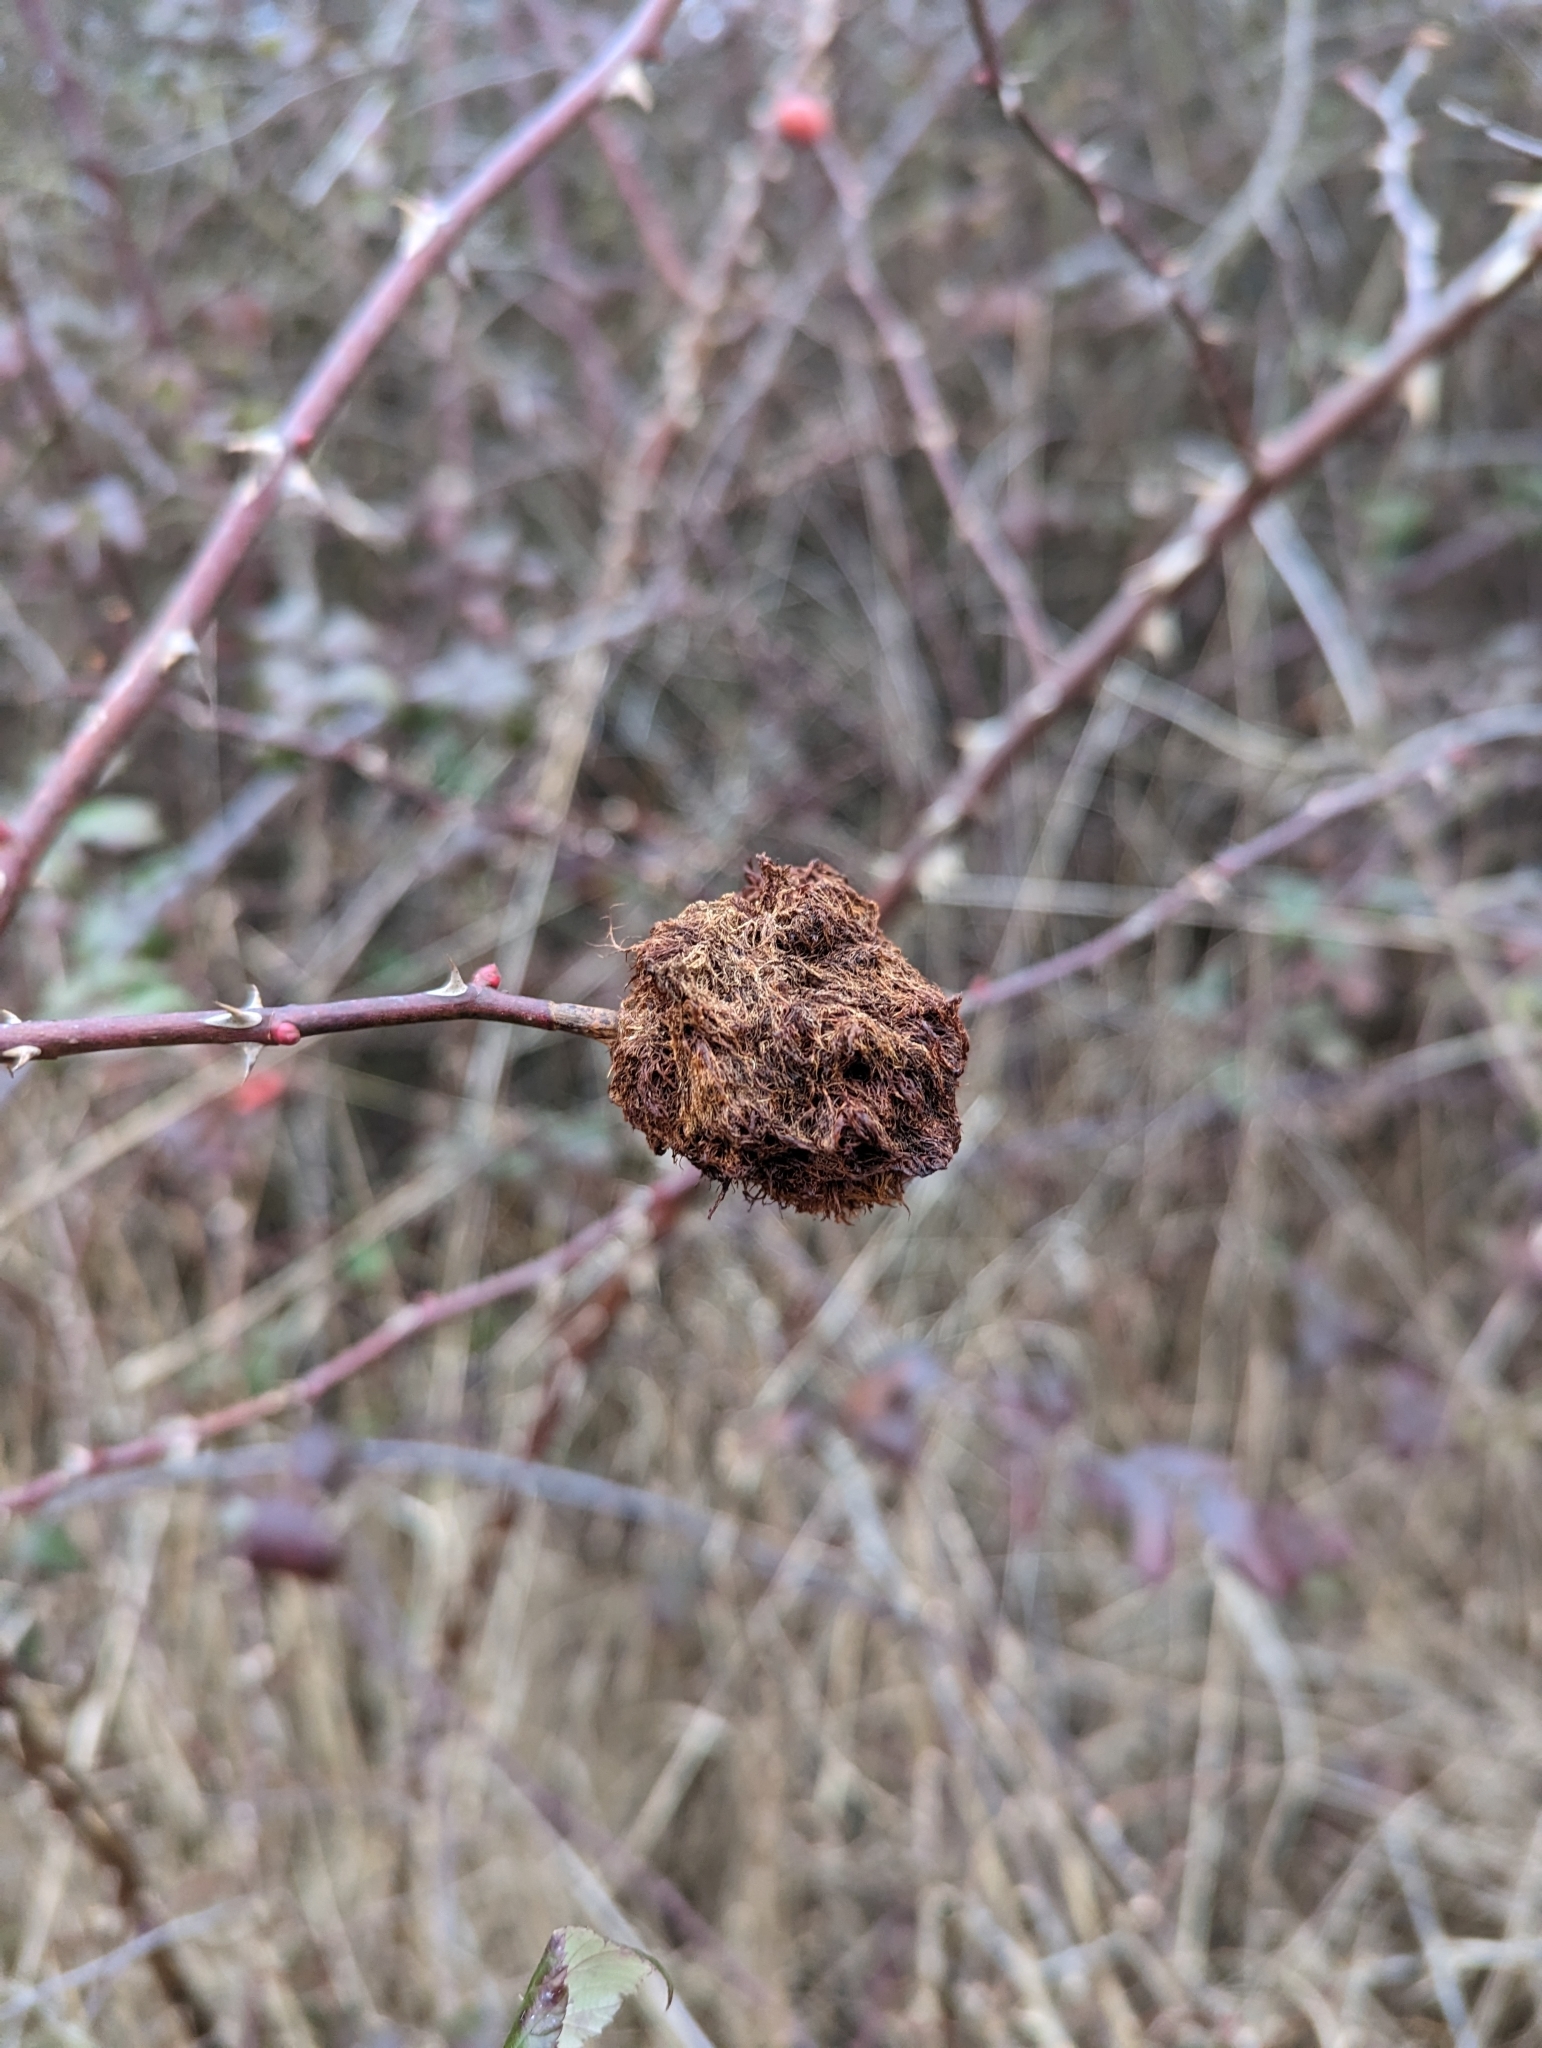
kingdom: Animalia
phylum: Arthropoda
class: Insecta
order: Hymenoptera
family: Cynipidae
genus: Diplolepis
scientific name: Diplolepis rosae
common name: Bedeguar gall
